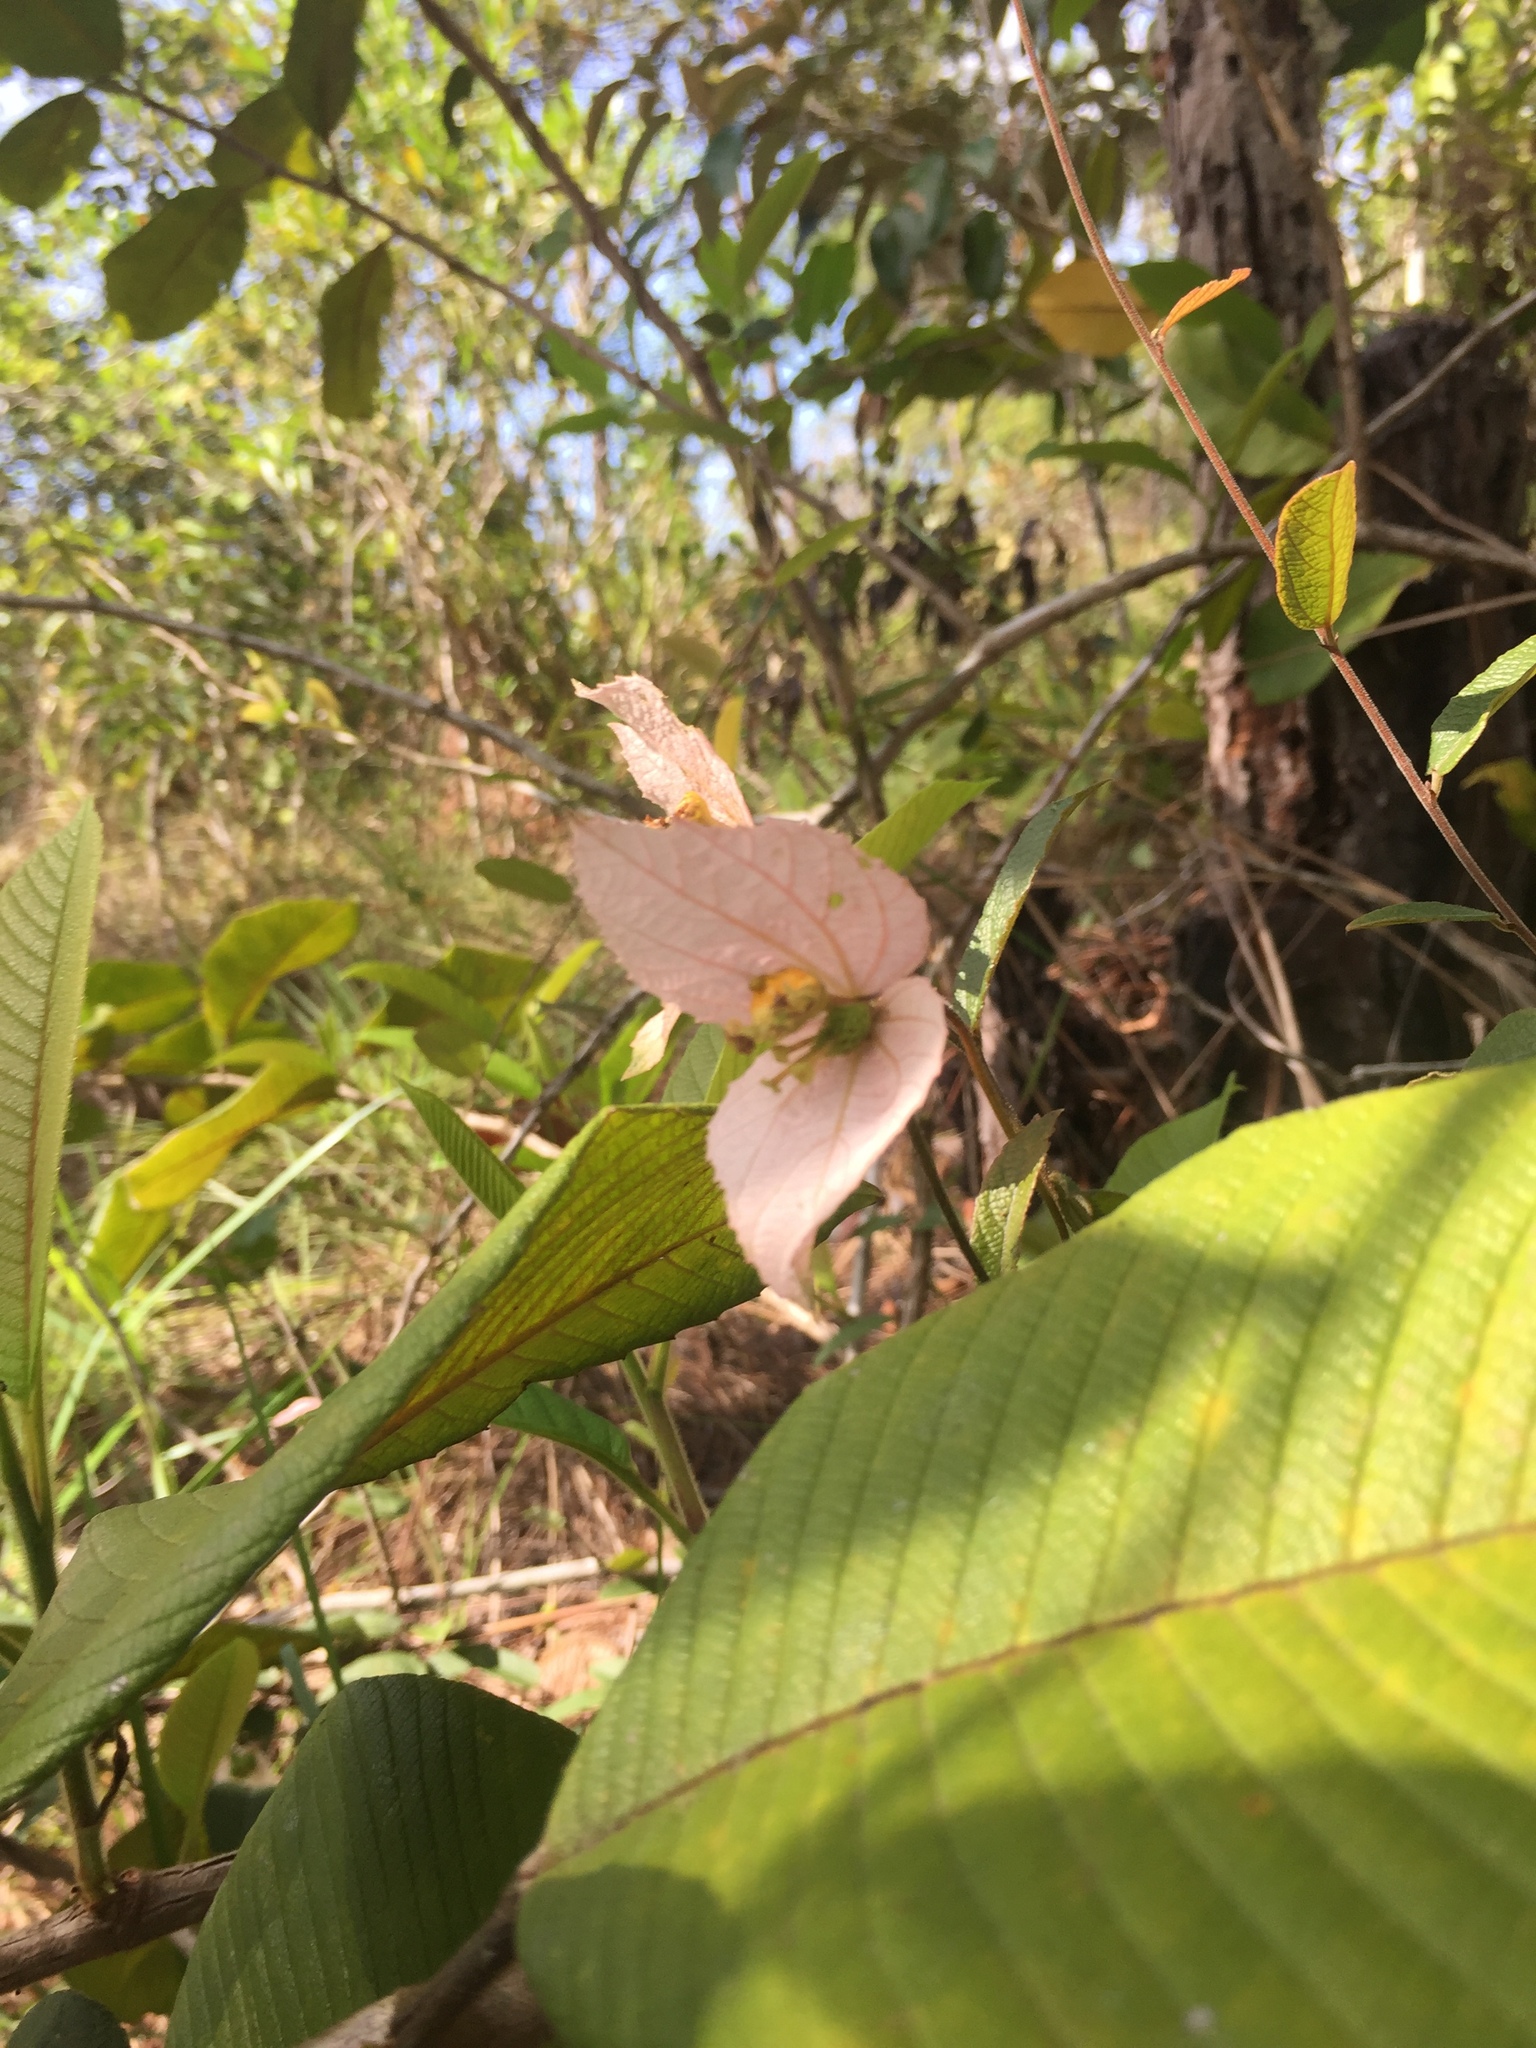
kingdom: Plantae
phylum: Tracheophyta
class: Magnoliopsida
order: Malpighiales
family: Euphorbiaceae
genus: Dalechampia
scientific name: Dalechampia schippii
